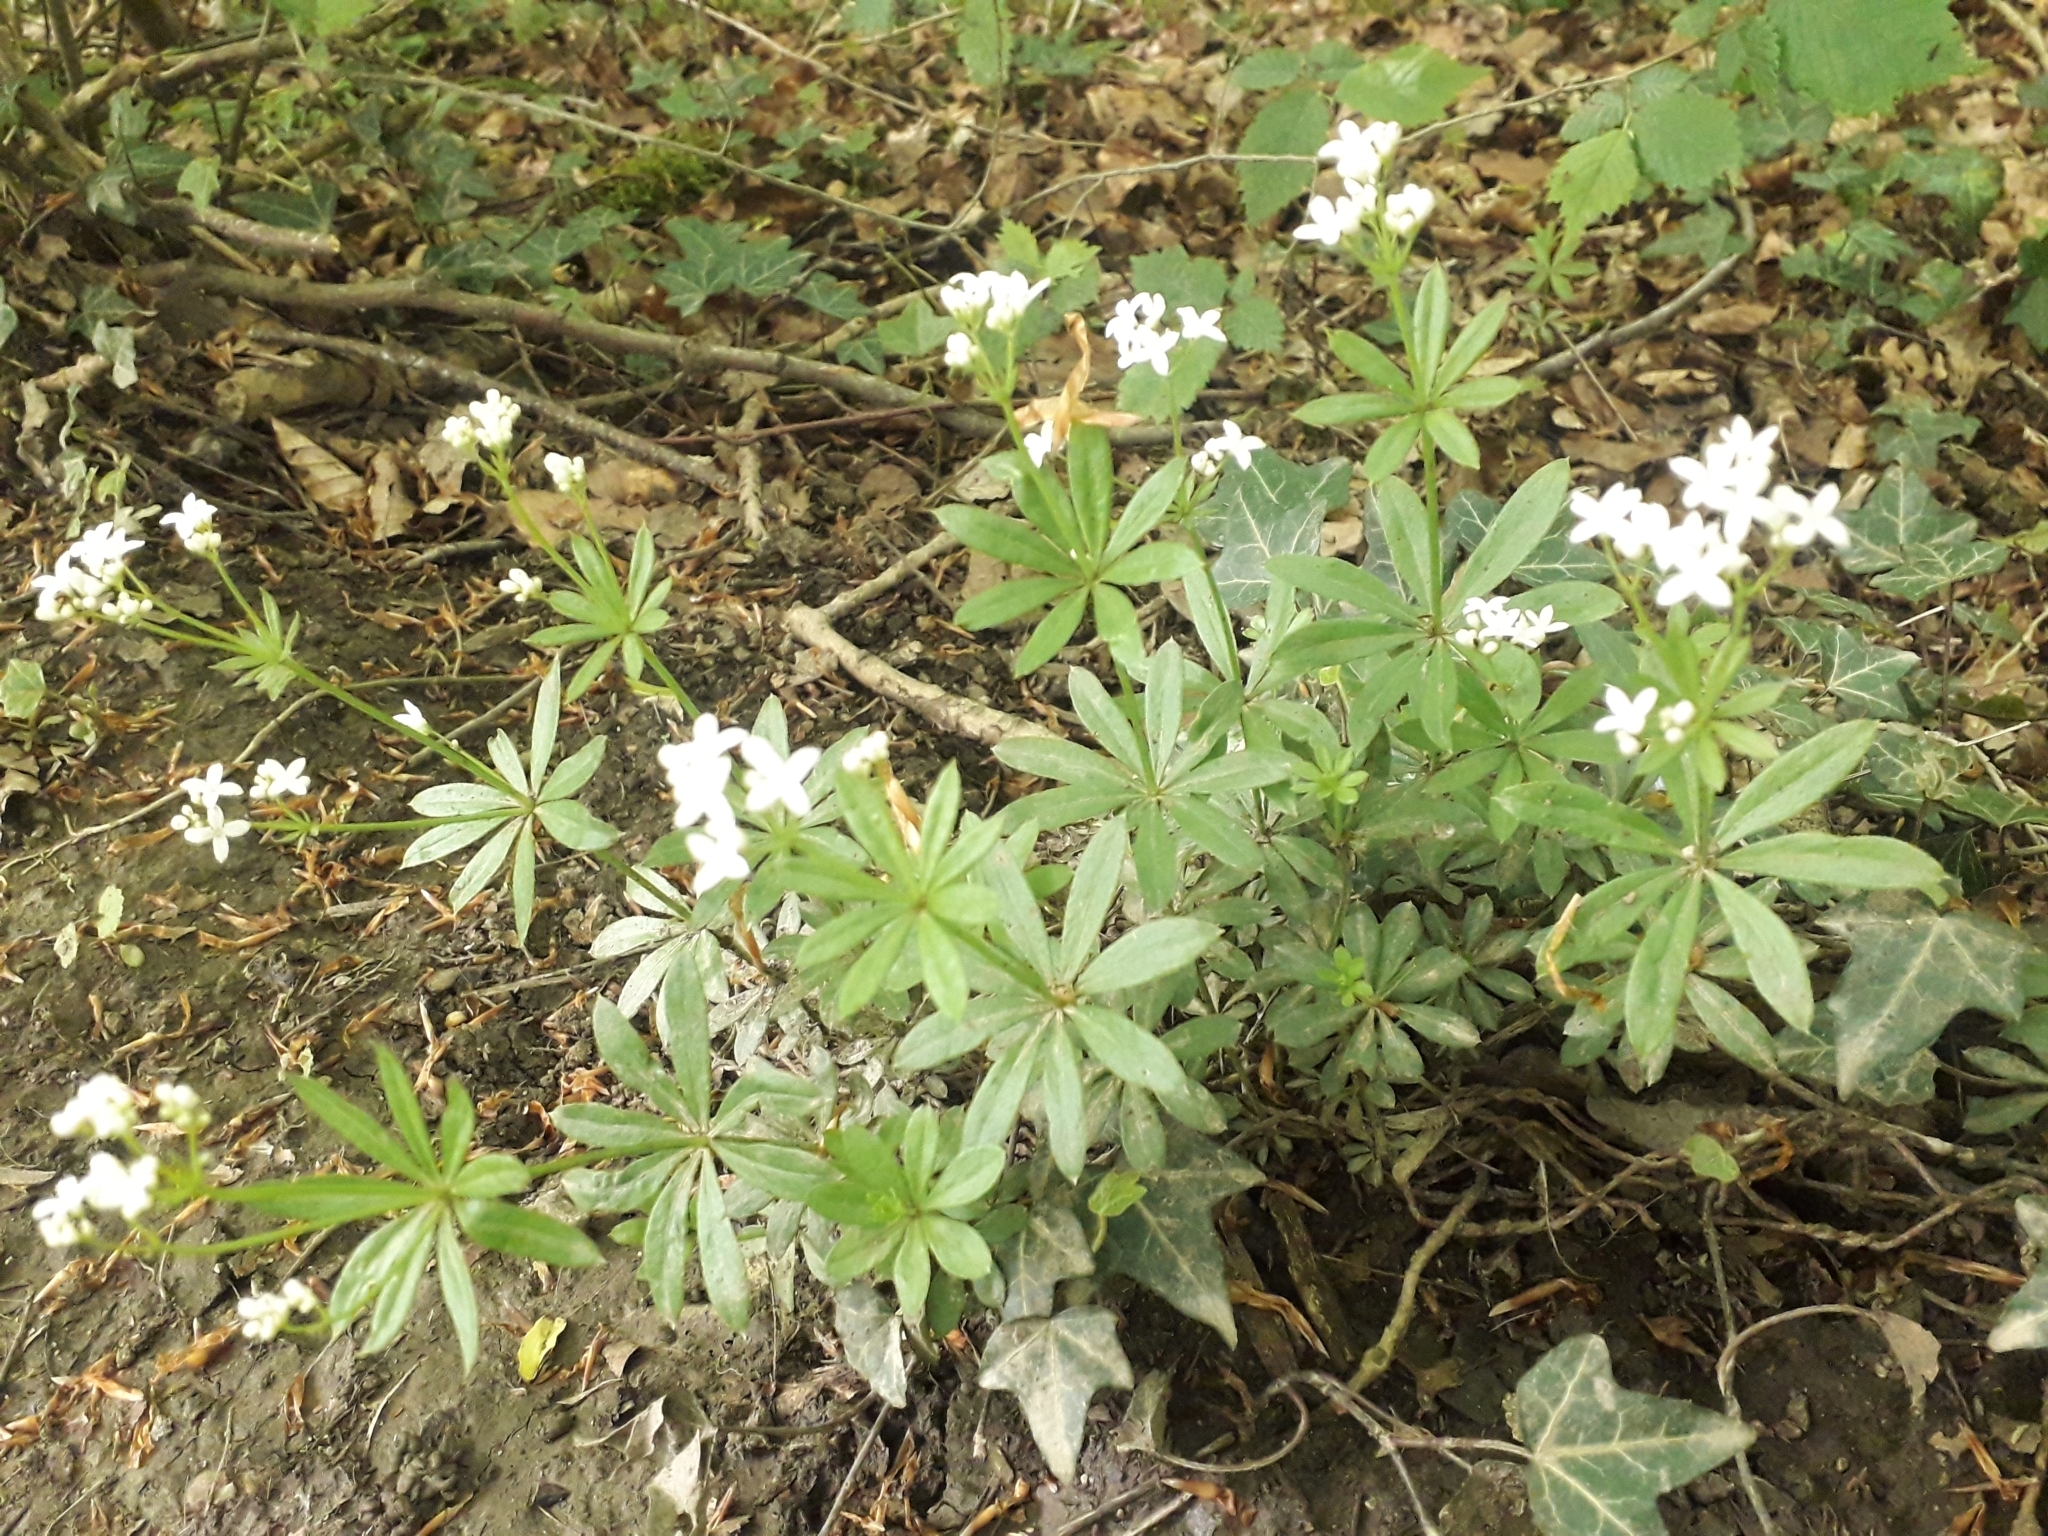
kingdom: Plantae
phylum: Tracheophyta
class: Magnoliopsida
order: Gentianales
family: Rubiaceae
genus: Galium
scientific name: Galium odoratum
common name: Sweet woodruff
